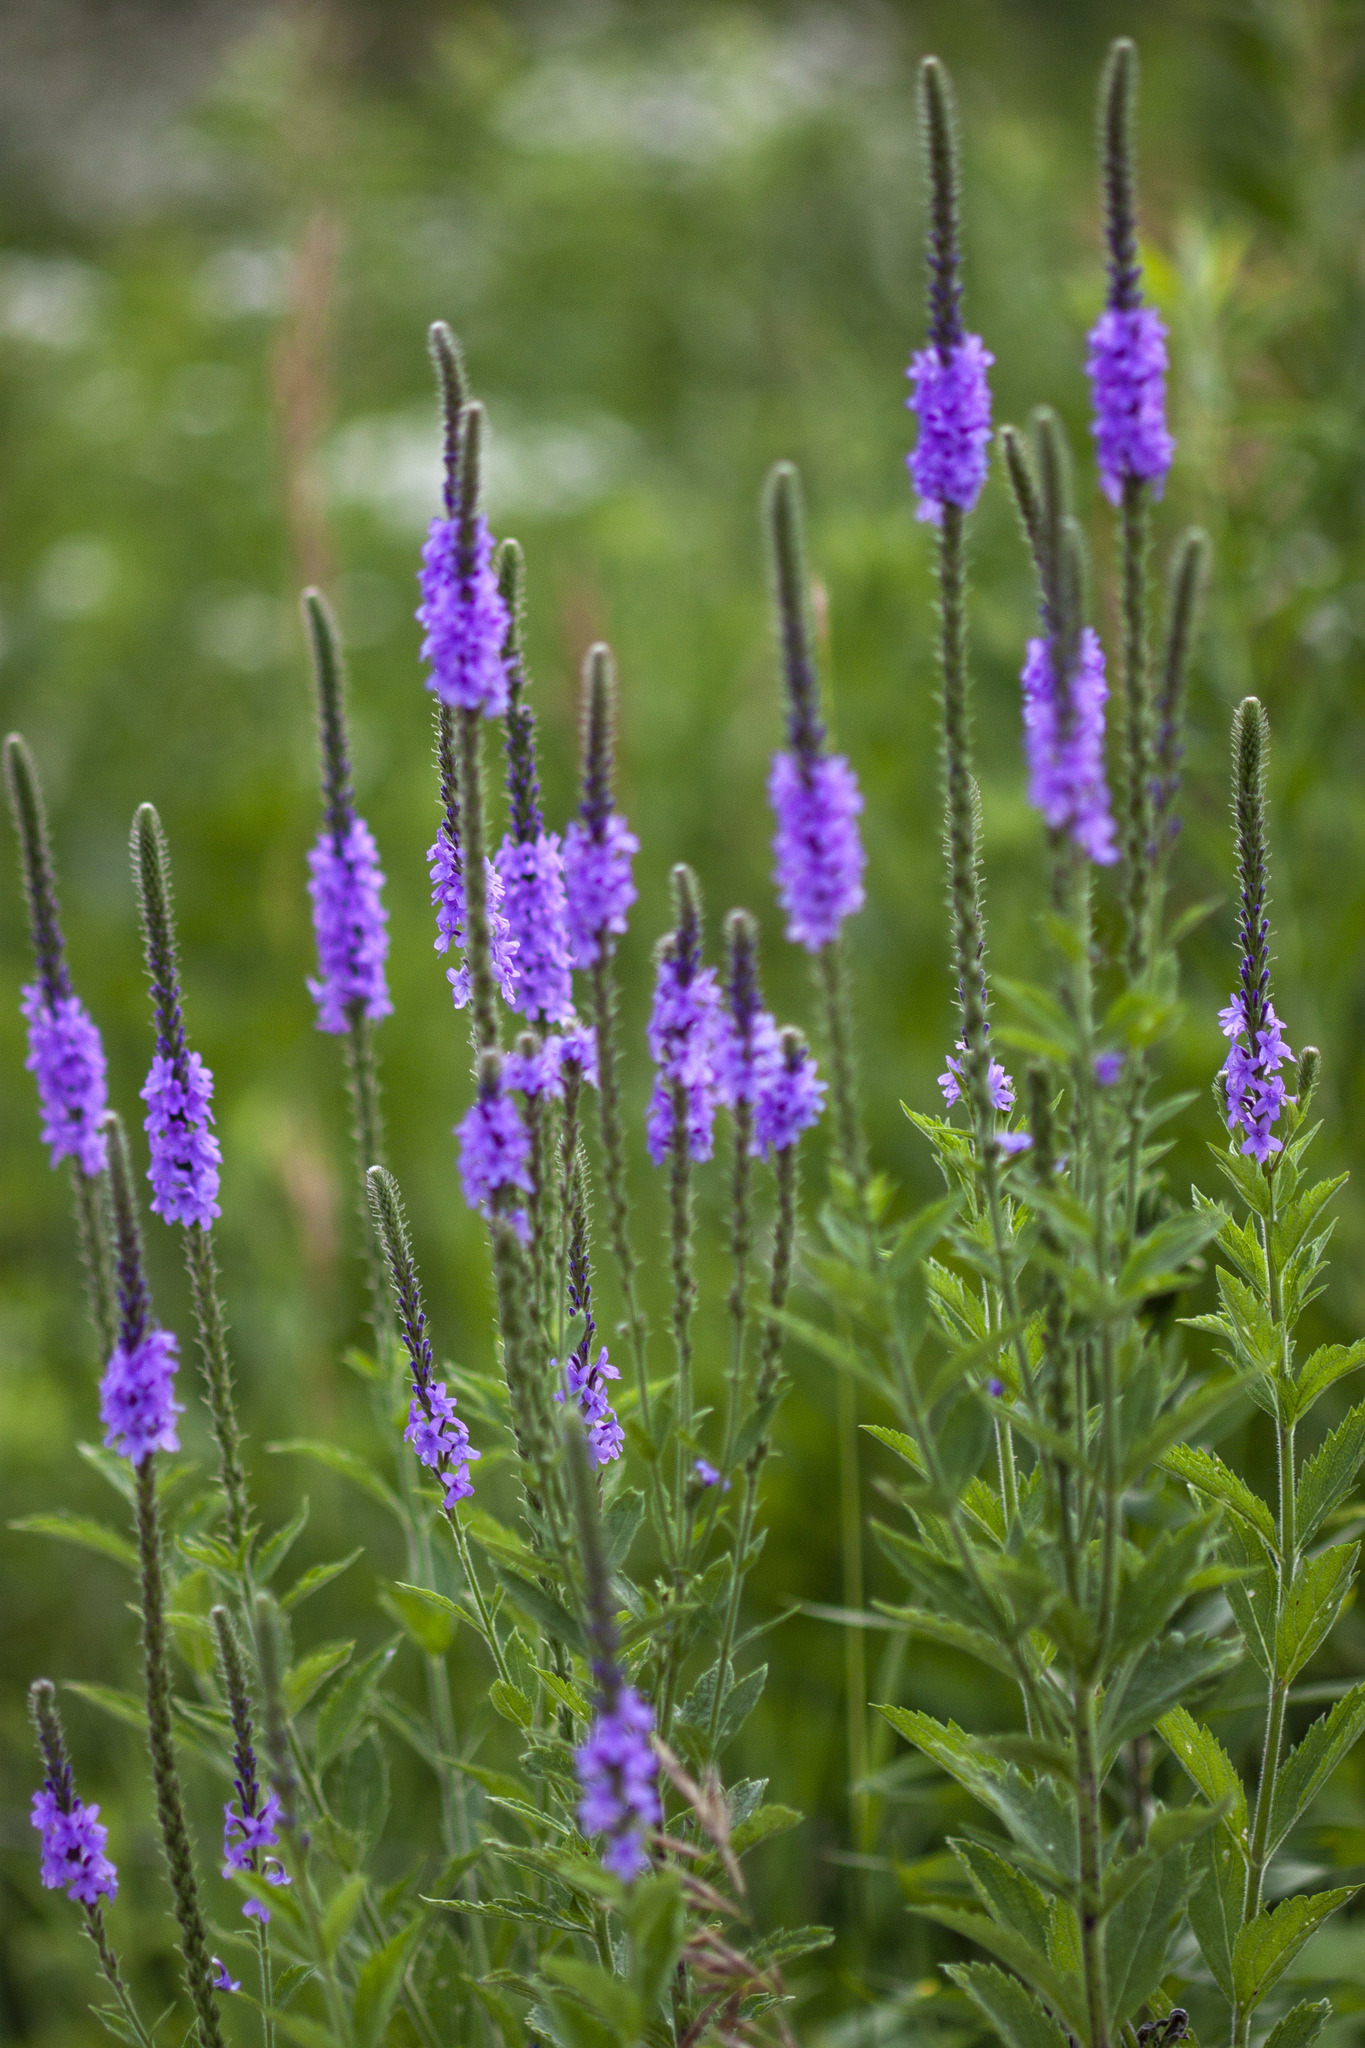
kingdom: Plantae
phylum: Tracheophyta
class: Magnoliopsida
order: Lamiales
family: Verbenaceae
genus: Verbena
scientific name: Verbena stricta
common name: Hoary vervain
